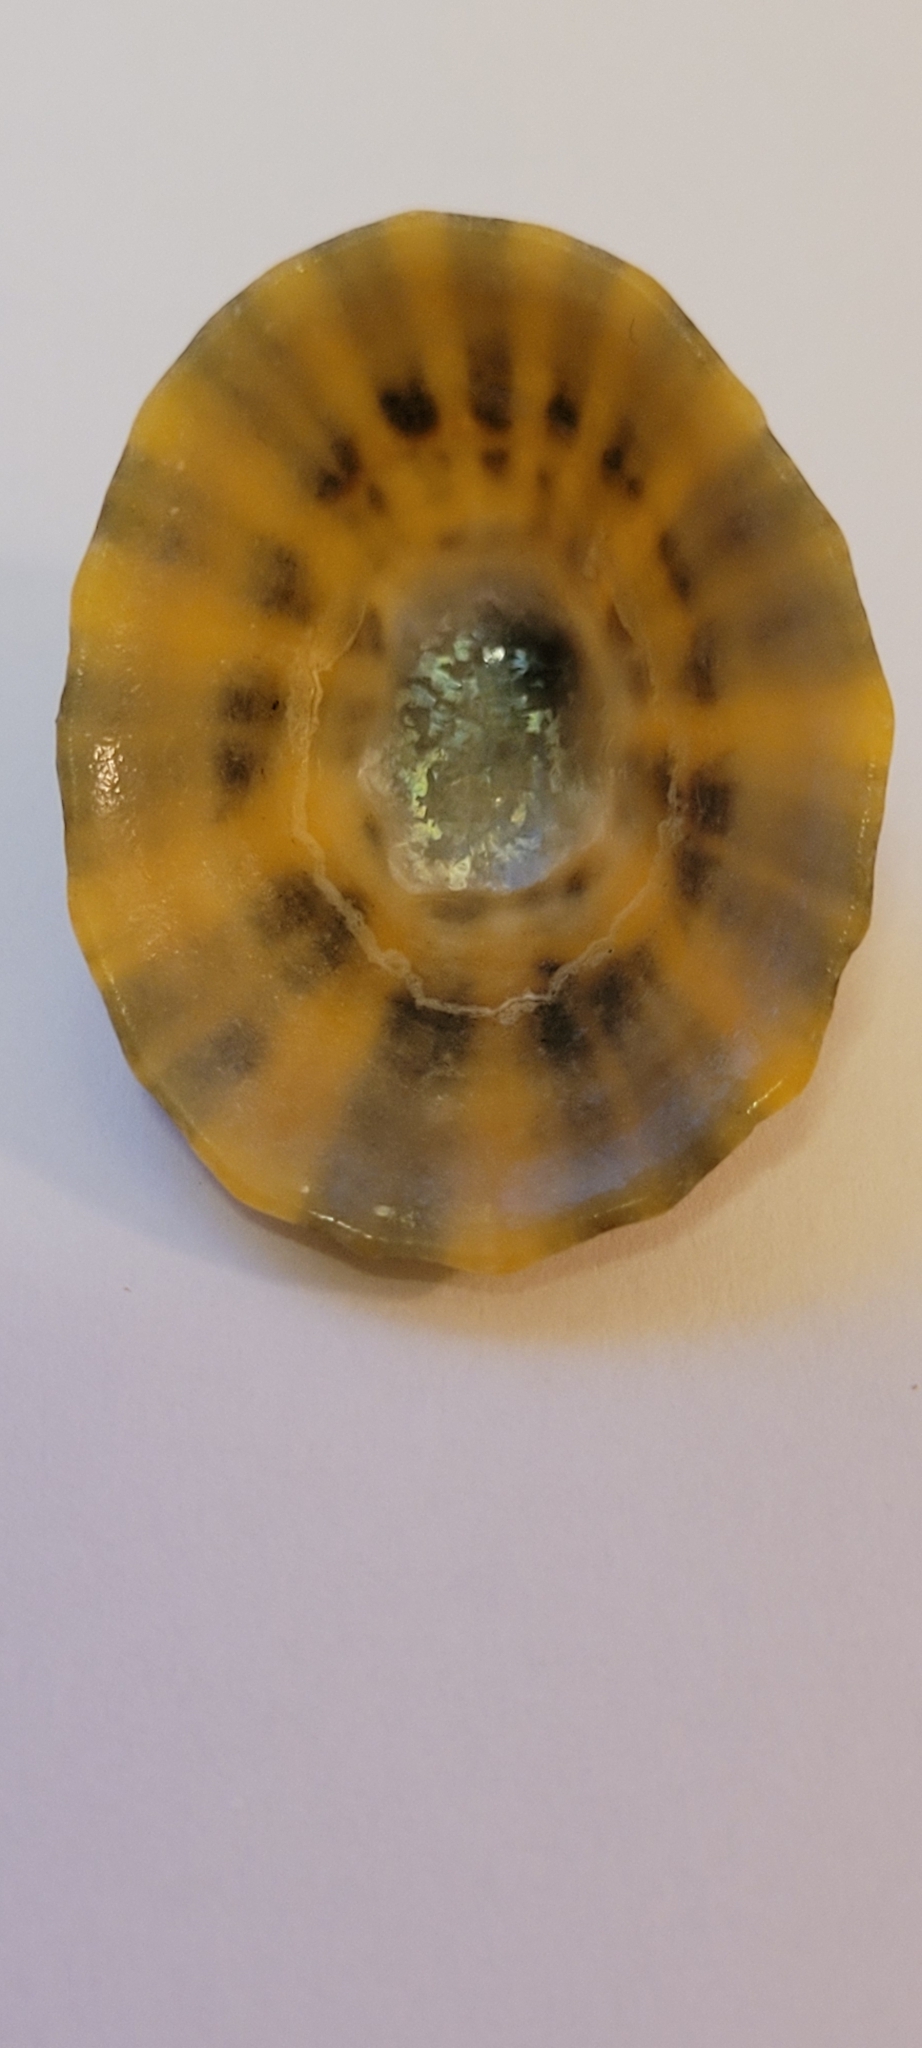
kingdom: Animalia
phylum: Mollusca
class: Gastropoda
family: Patellidae
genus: Patella
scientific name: Patella vulgata
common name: Common limpet
